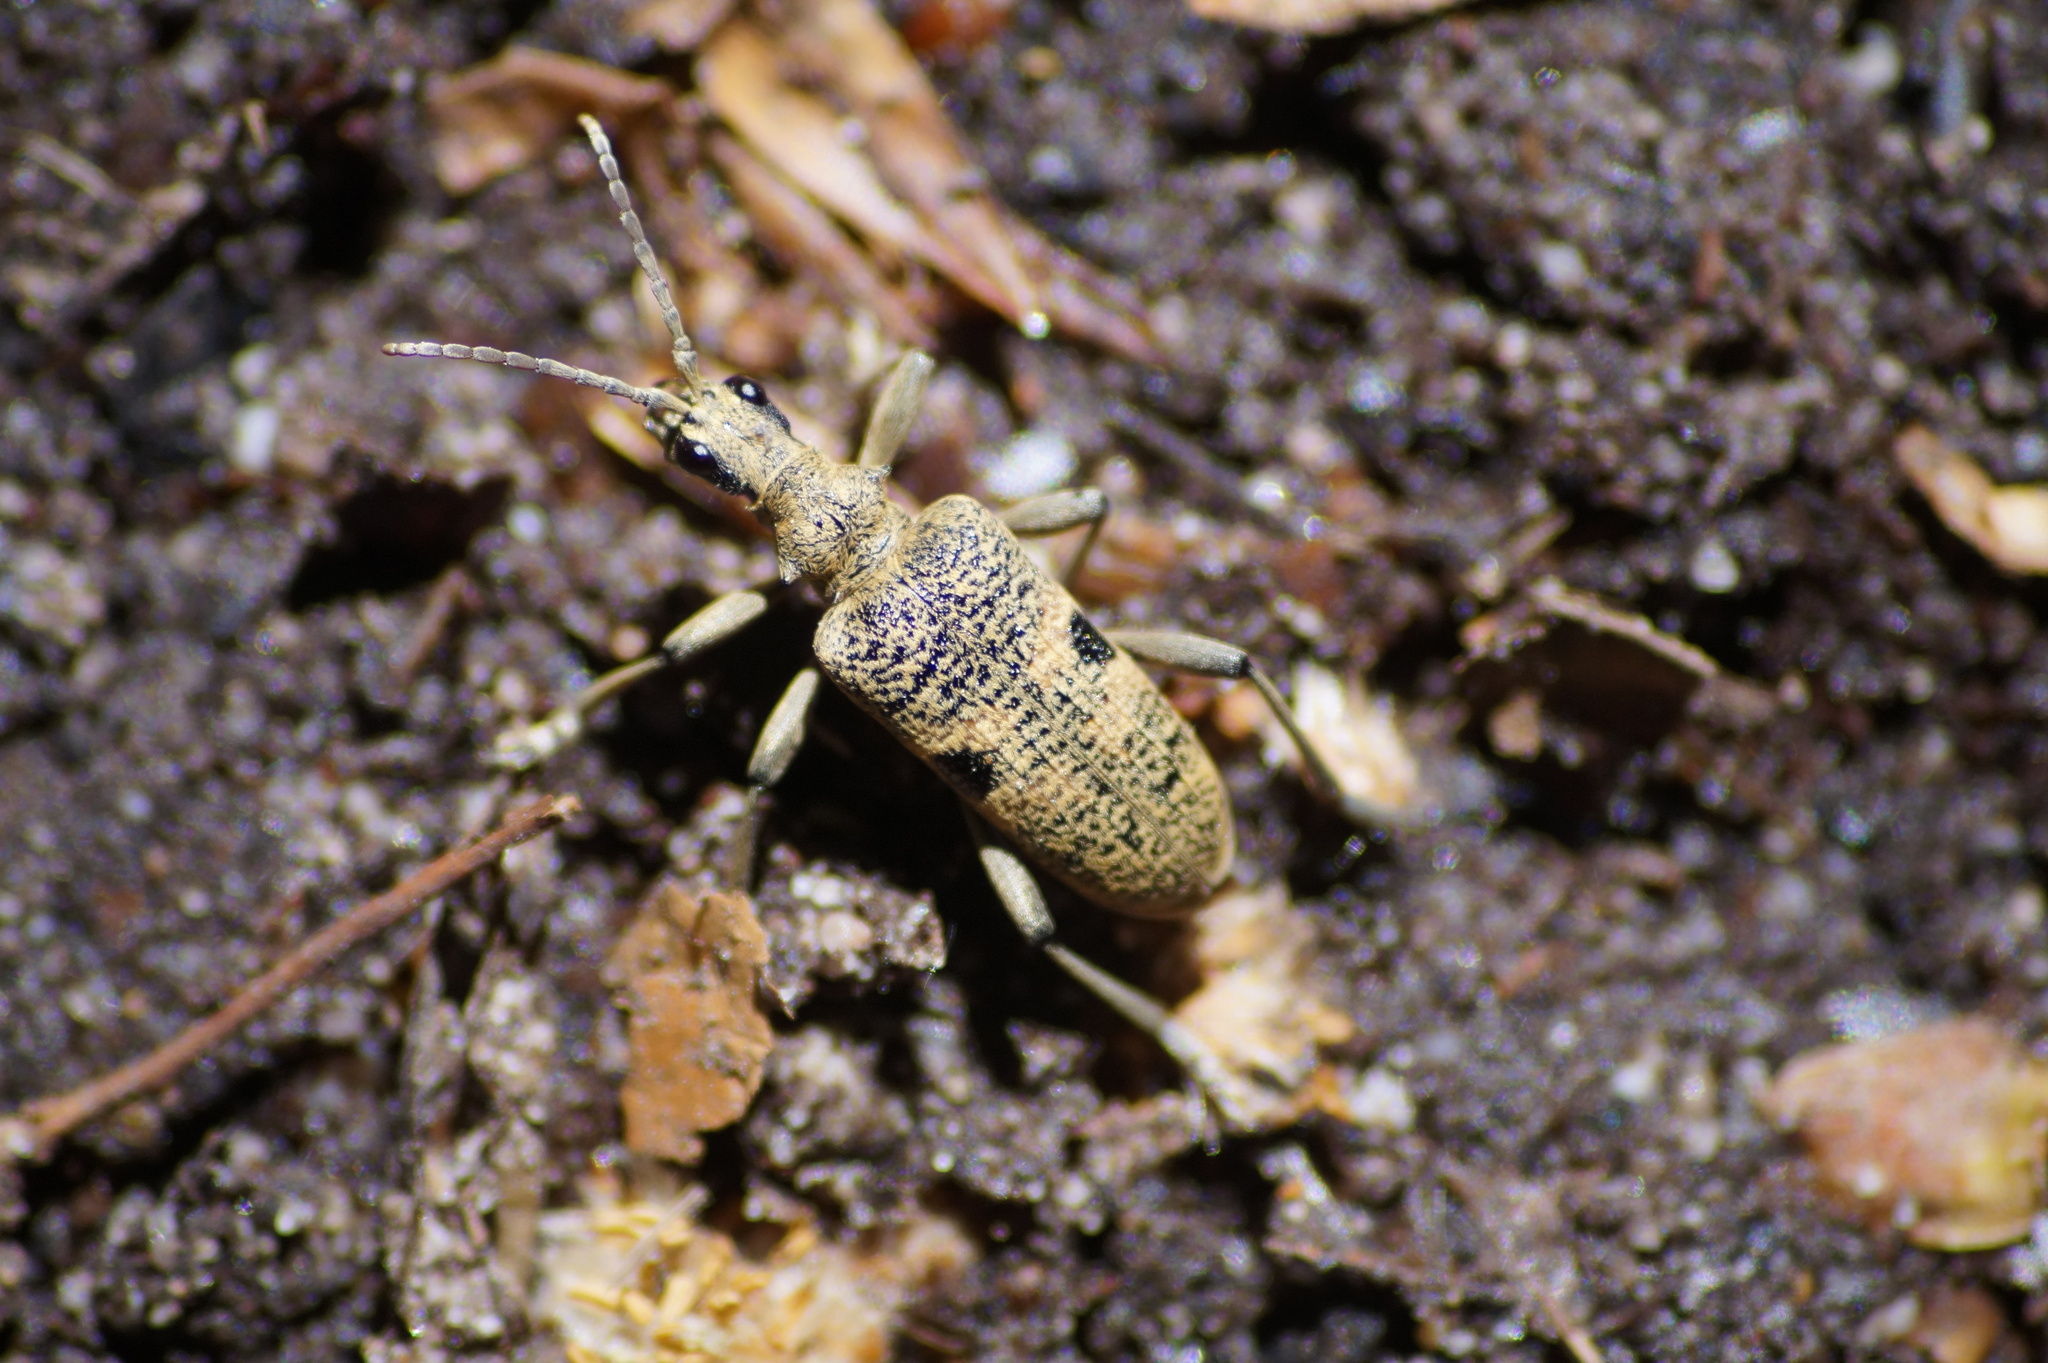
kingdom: Animalia
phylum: Arthropoda
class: Insecta
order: Coleoptera
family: Cerambycidae
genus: Rhagium
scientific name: Rhagium mordax
